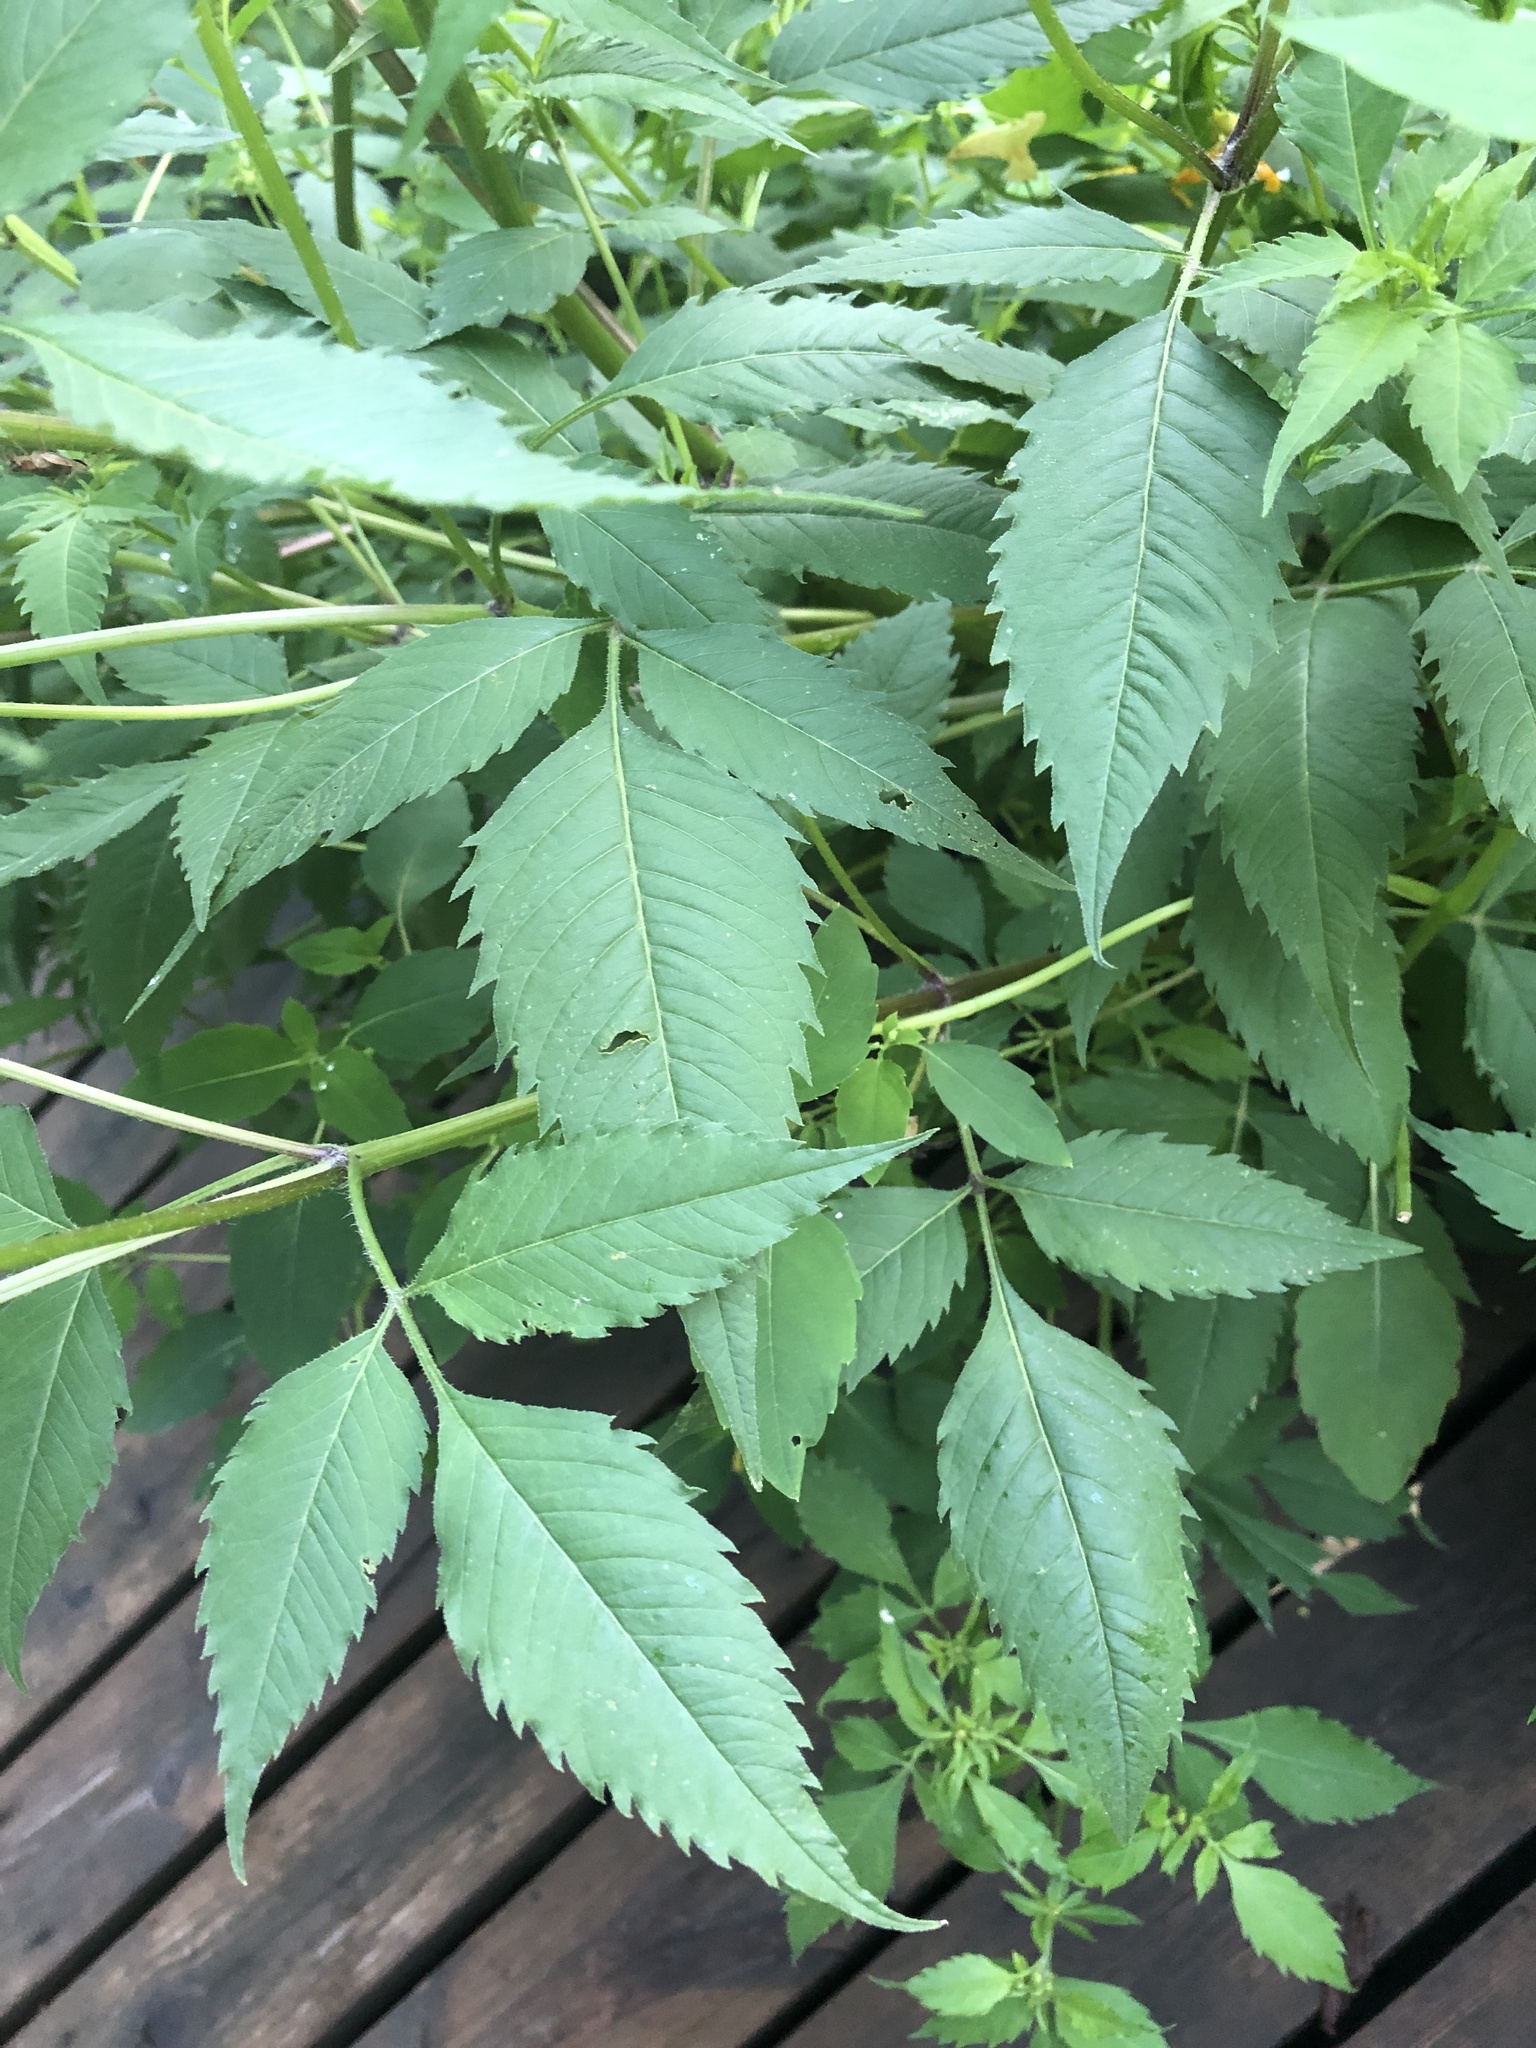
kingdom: Plantae
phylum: Tracheophyta
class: Magnoliopsida
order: Asterales
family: Asteraceae
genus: Bidens
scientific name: Bidens frondosa
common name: Beggarticks
